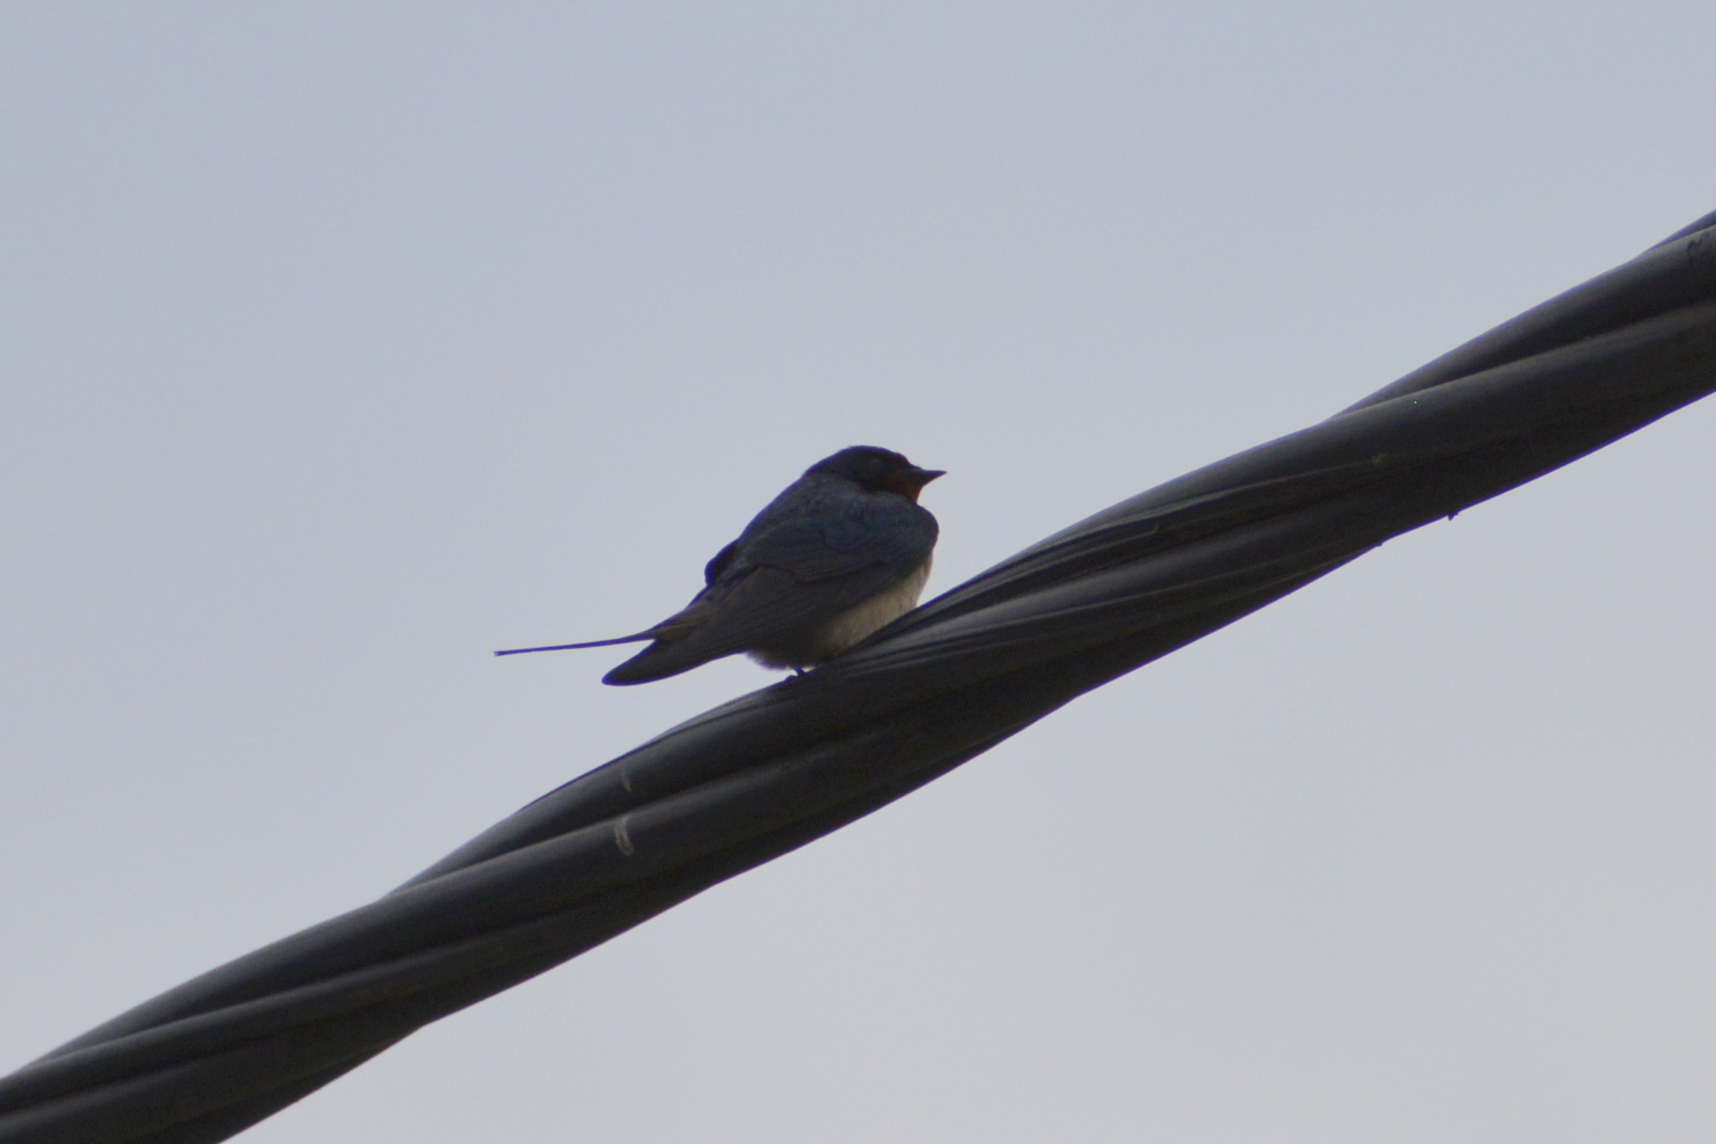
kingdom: Animalia
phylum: Chordata
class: Aves
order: Passeriformes
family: Hirundinidae
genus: Hirundo
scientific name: Hirundo rustica
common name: Barn swallow
